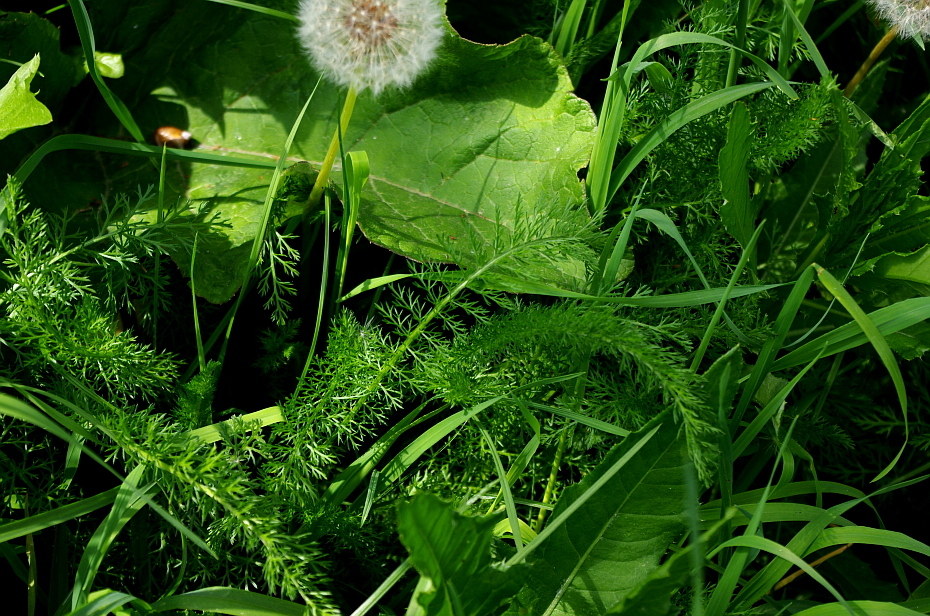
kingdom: Plantae
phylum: Tracheophyta
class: Magnoliopsida
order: Asterales
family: Asteraceae
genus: Achillea
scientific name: Achillea millefolium
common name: Yarrow
